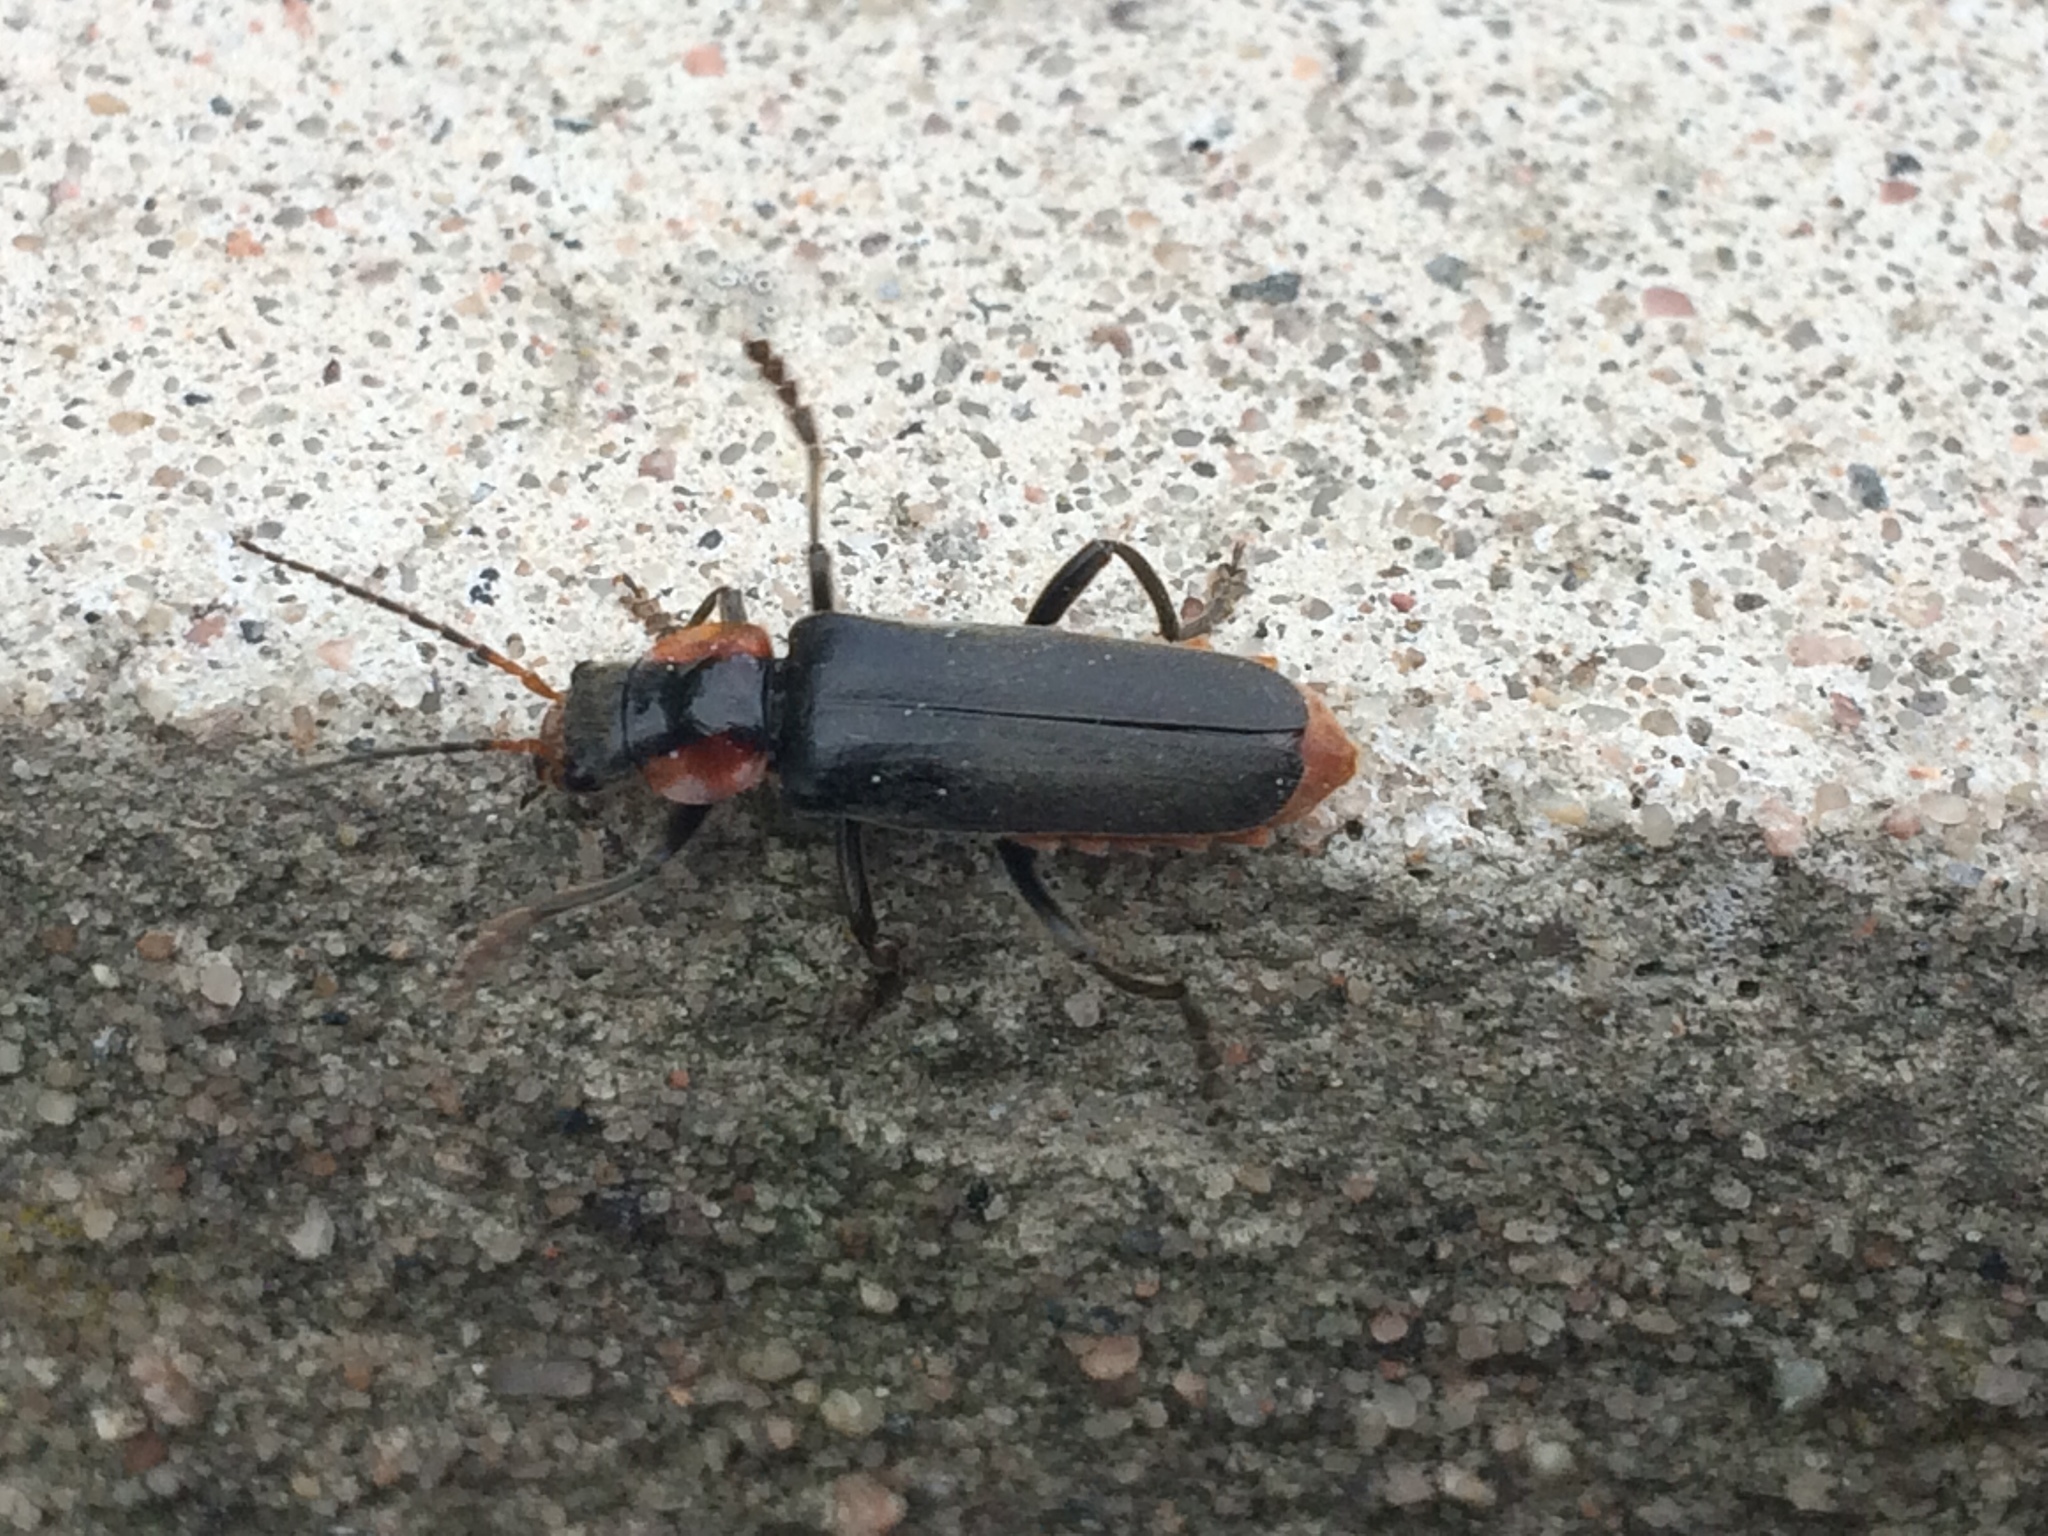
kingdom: Animalia
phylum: Arthropoda
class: Insecta
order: Coleoptera
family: Cantharidae
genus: Cantharis
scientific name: Cantharis fusca
